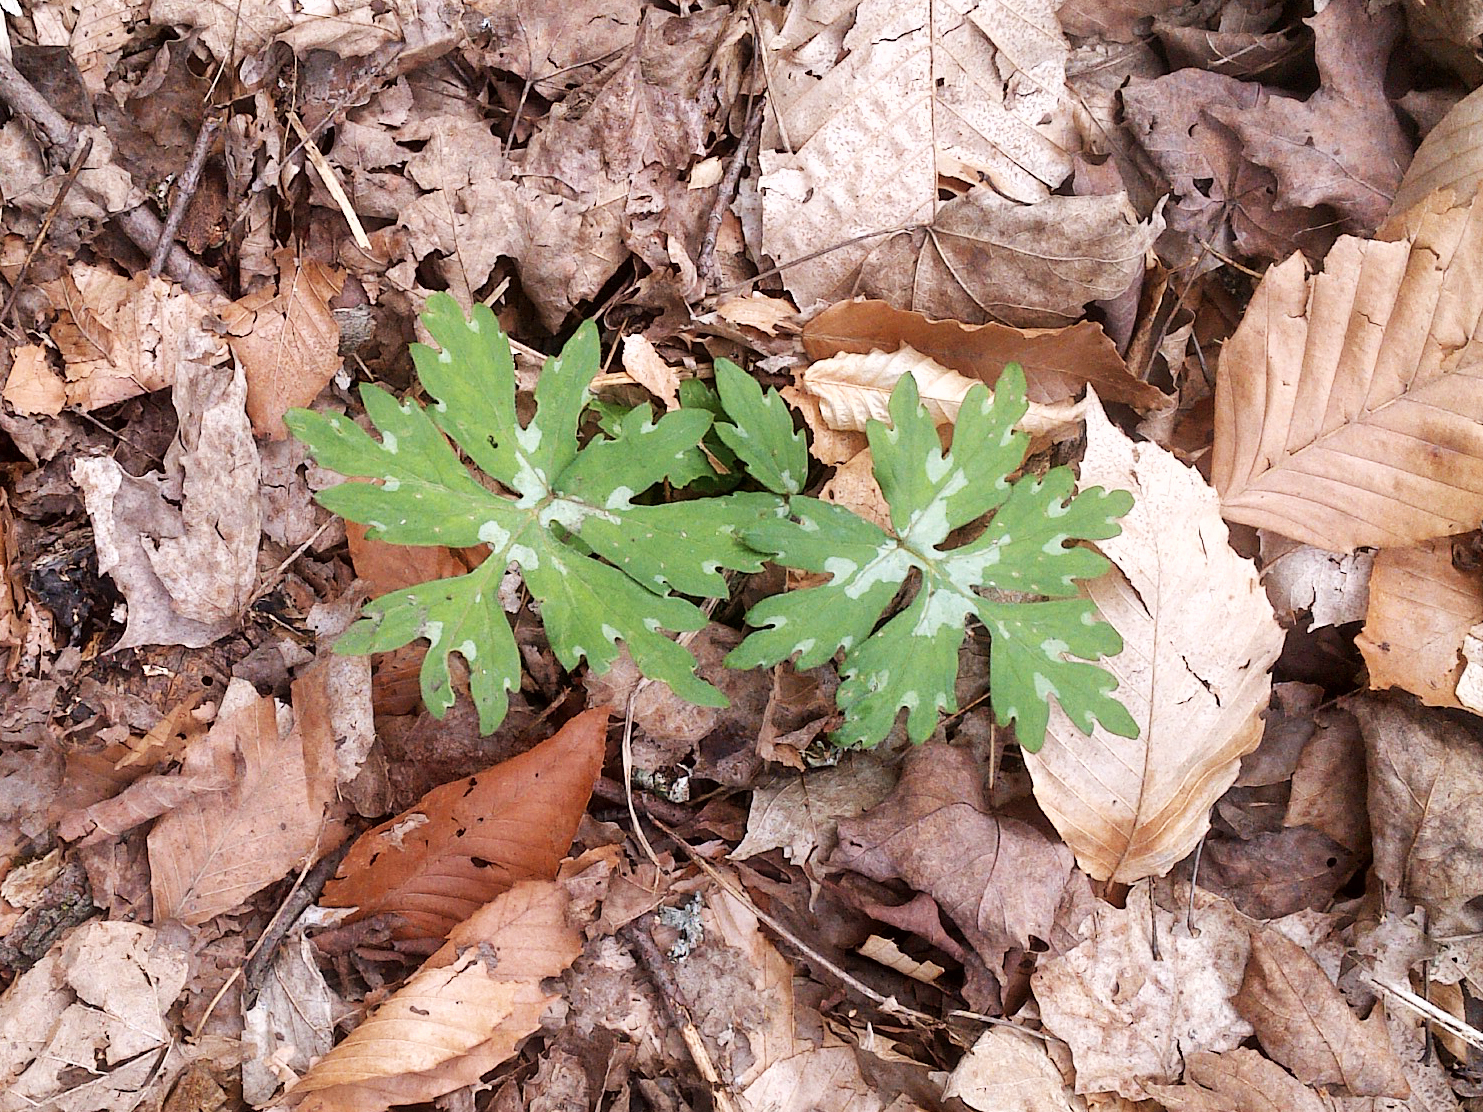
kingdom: Plantae
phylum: Tracheophyta
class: Magnoliopsida
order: Boraginales
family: Hydrophyllaceae
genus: Hydrophyllum
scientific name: Hydrophyllum canadense
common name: Canada waterleaf
